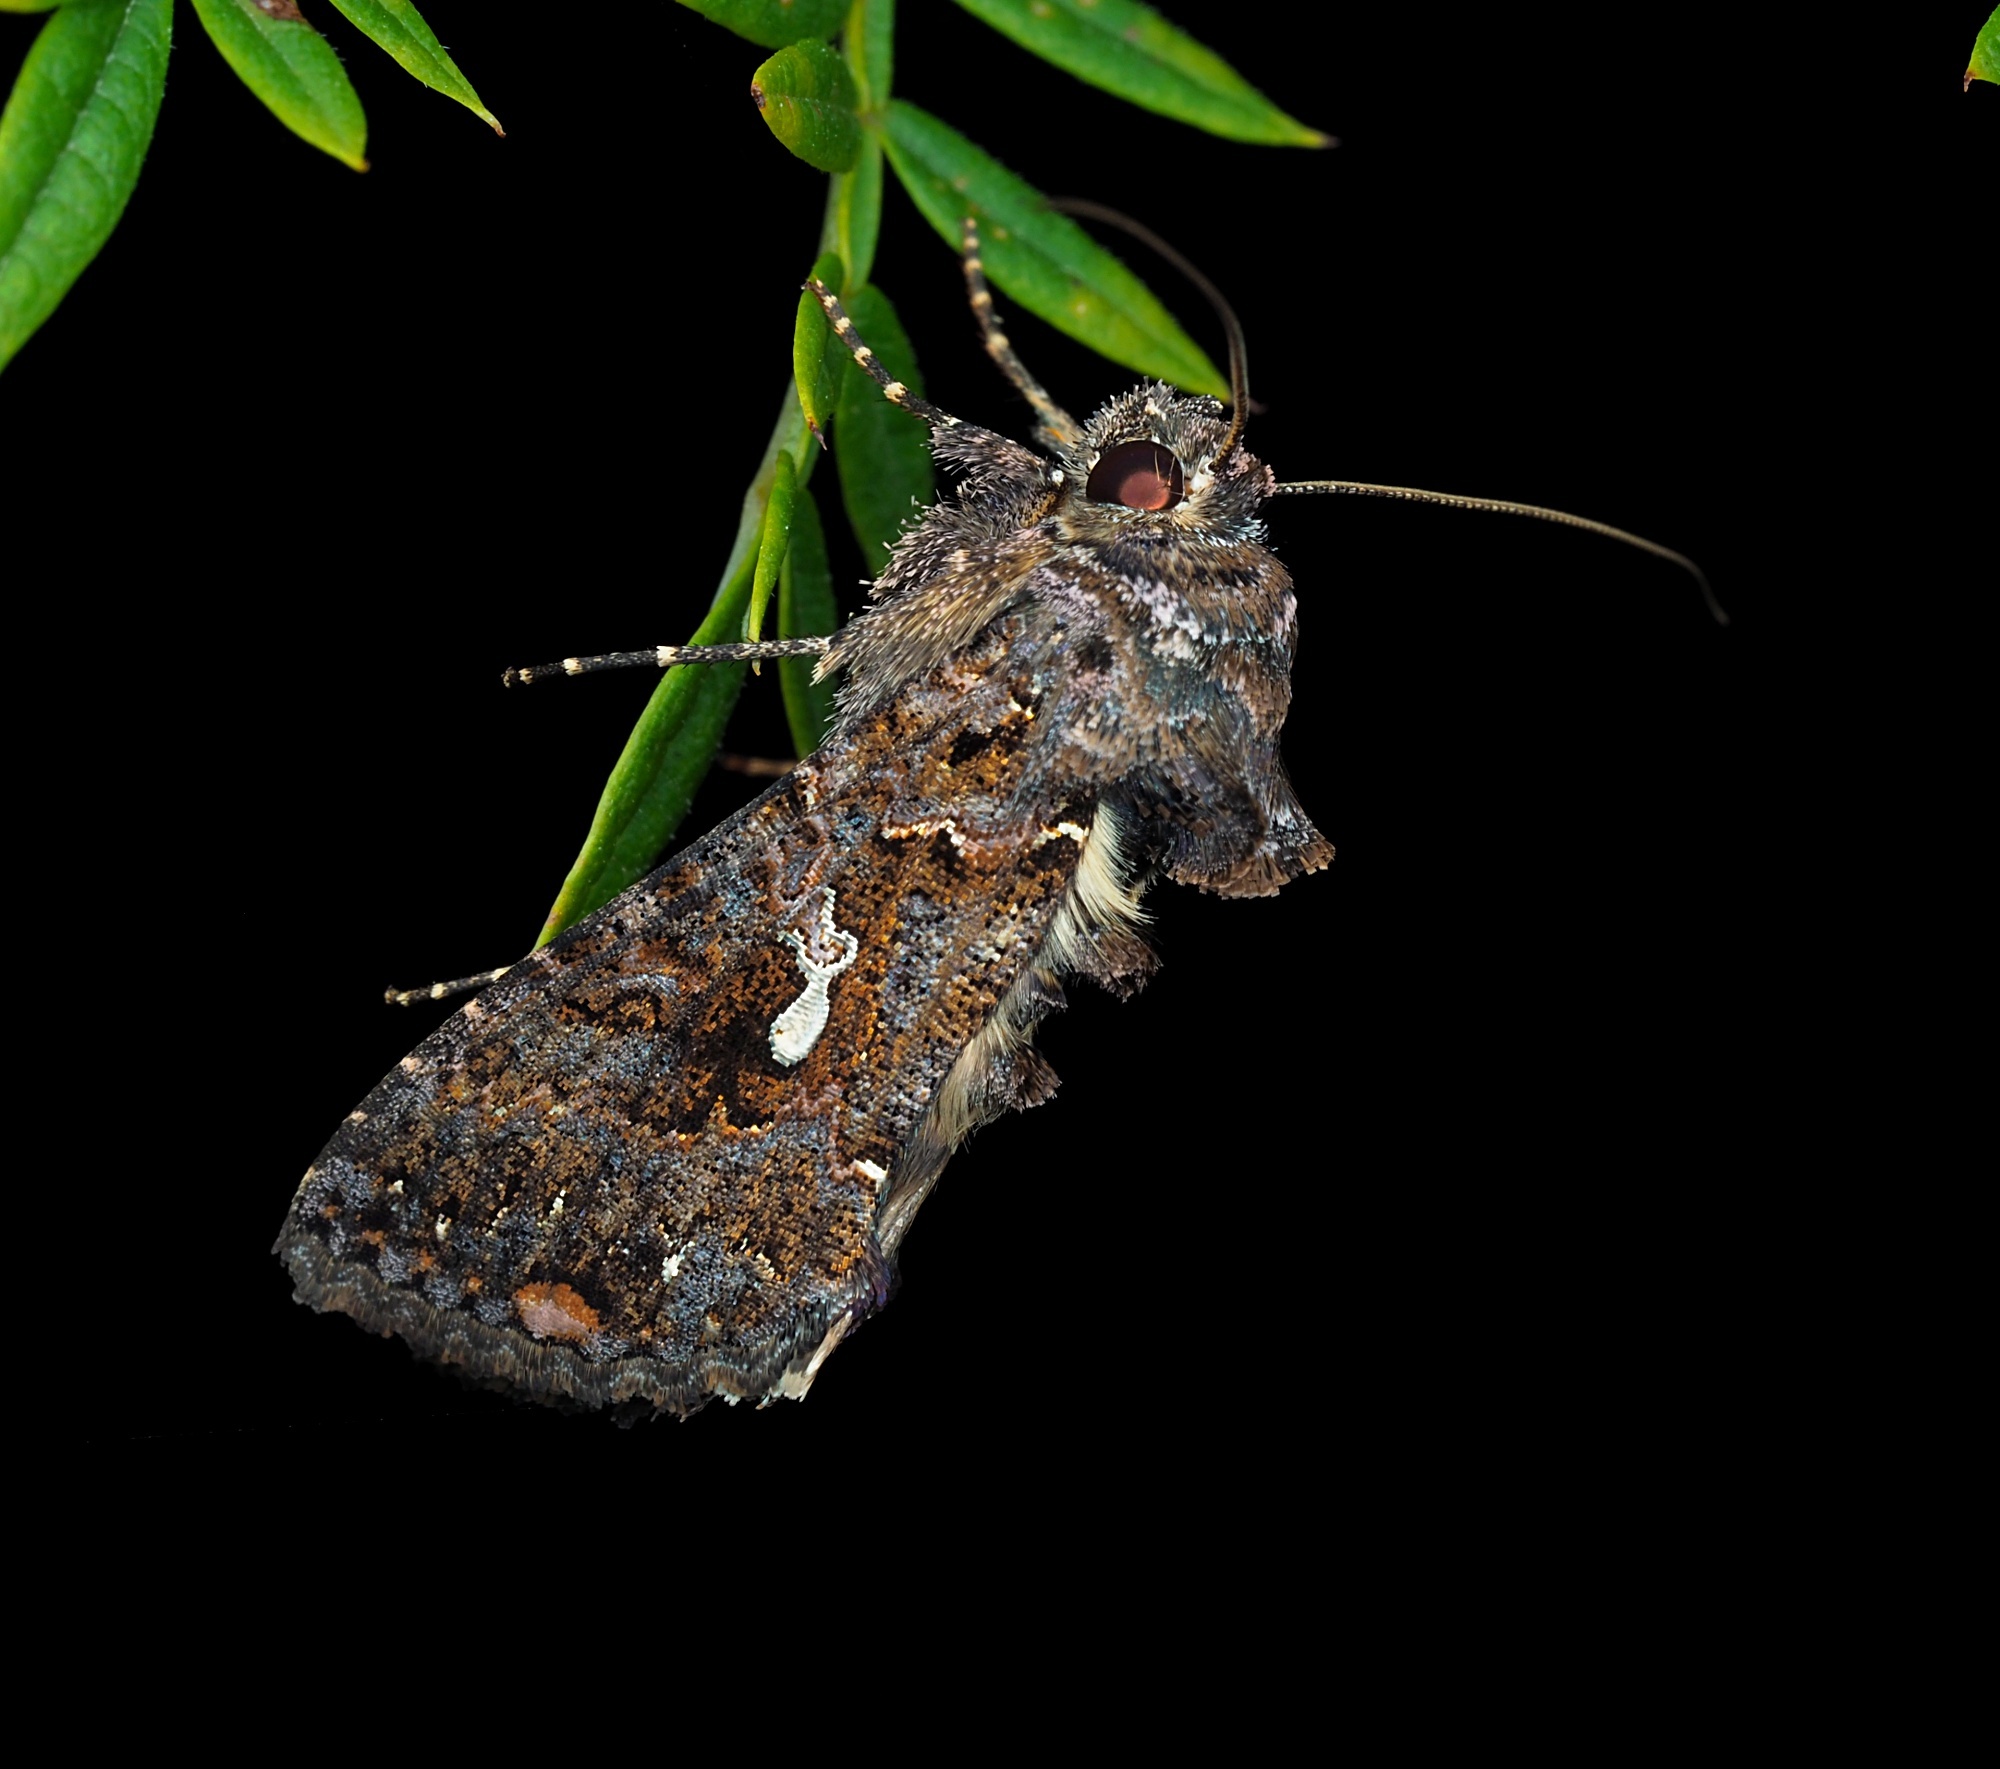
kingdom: Animalia
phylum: Arthropoda
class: Insecta
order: Lepidoptera
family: Noctuidae
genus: Ctenoplusia
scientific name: Ctenoplusia limbirena
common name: Scar bank gem
